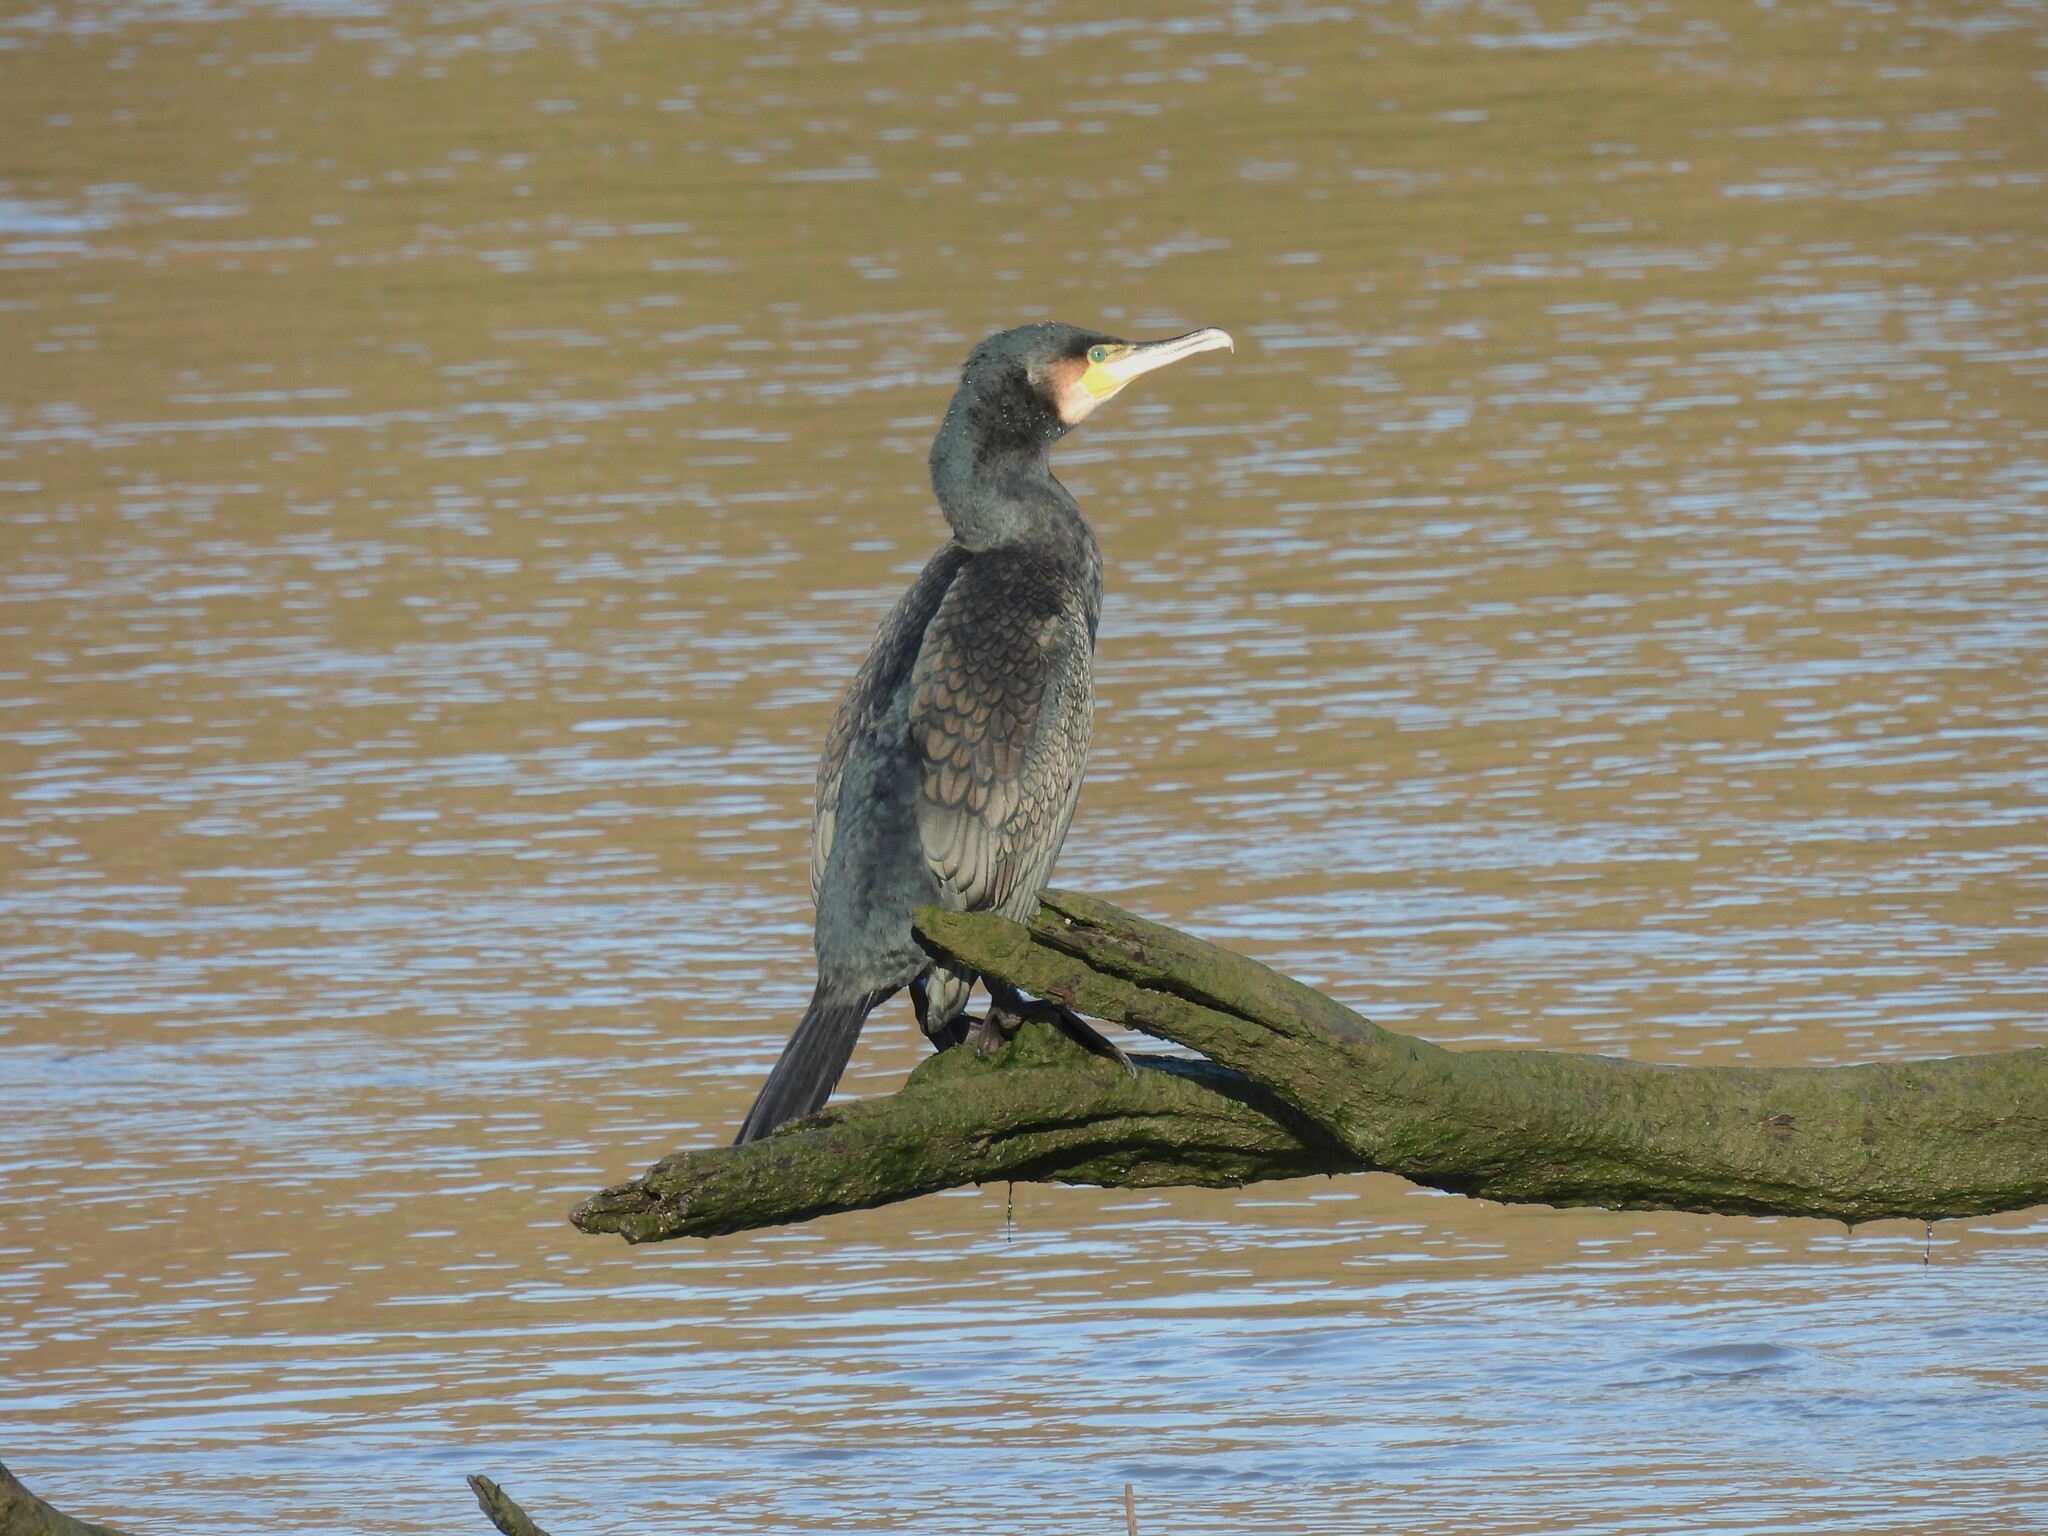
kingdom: Animalia
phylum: Chordata
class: Aves
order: Suliformes
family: Phalacrocoracidae
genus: Phalacrocorax
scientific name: Phalacrocorax carbo
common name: Great cormorant
